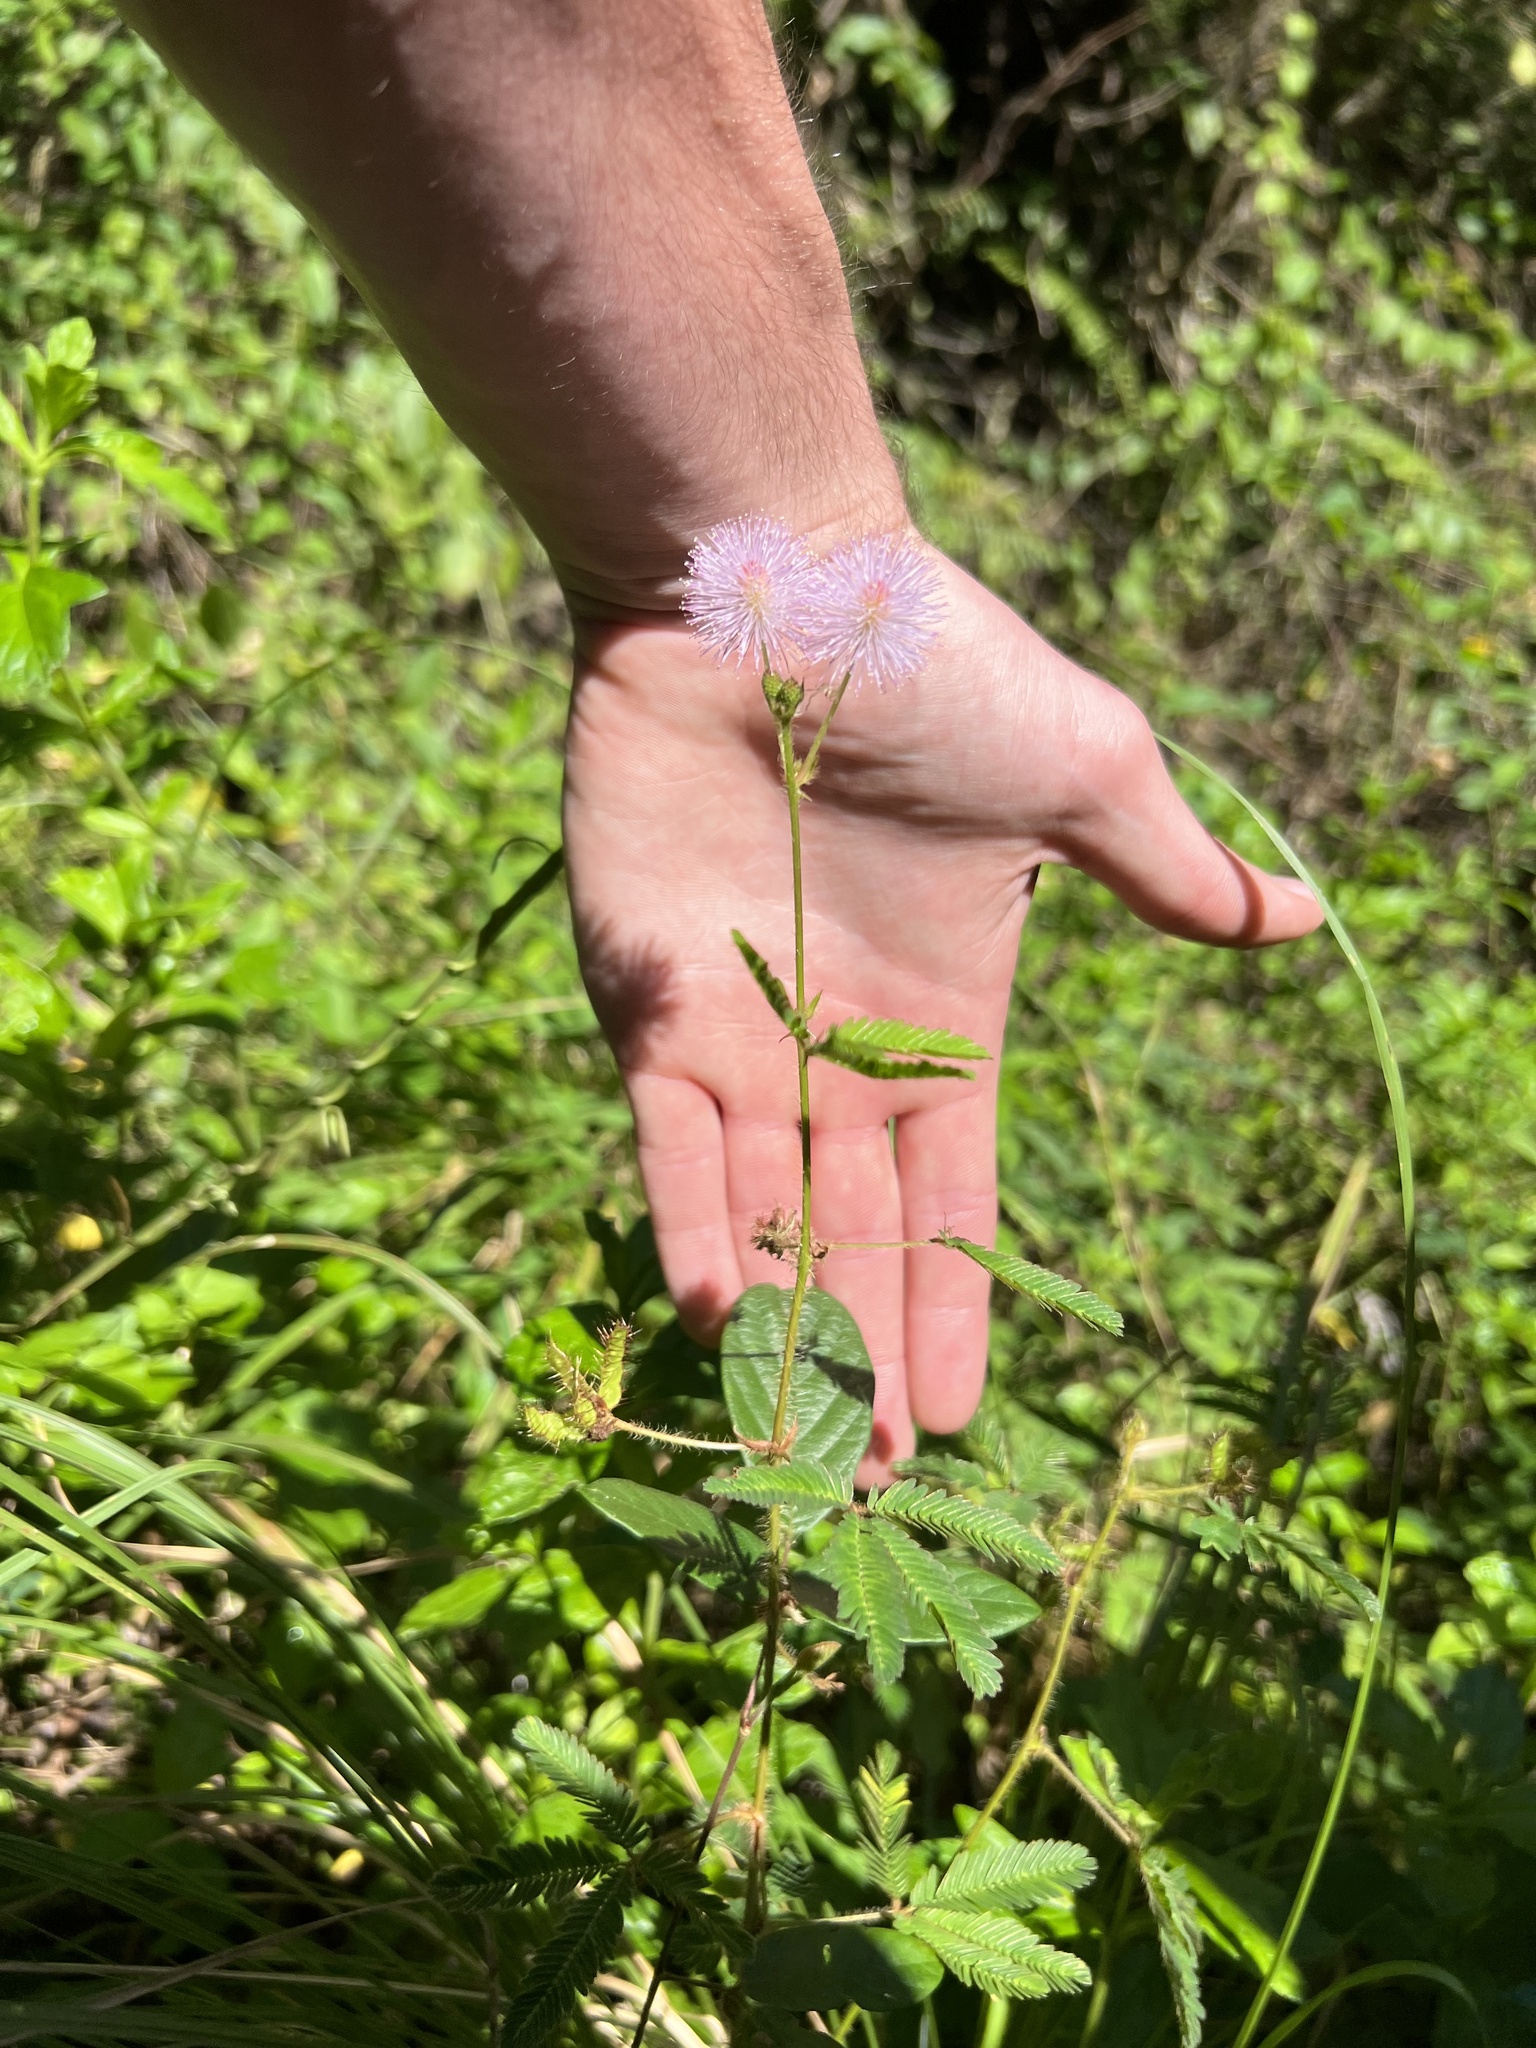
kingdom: Plantae
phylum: Tracheophyta
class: Magnoliopsida
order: Fabales
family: Fabaceae
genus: Mimosa
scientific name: Mimosa pudica
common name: Sensitive plant
